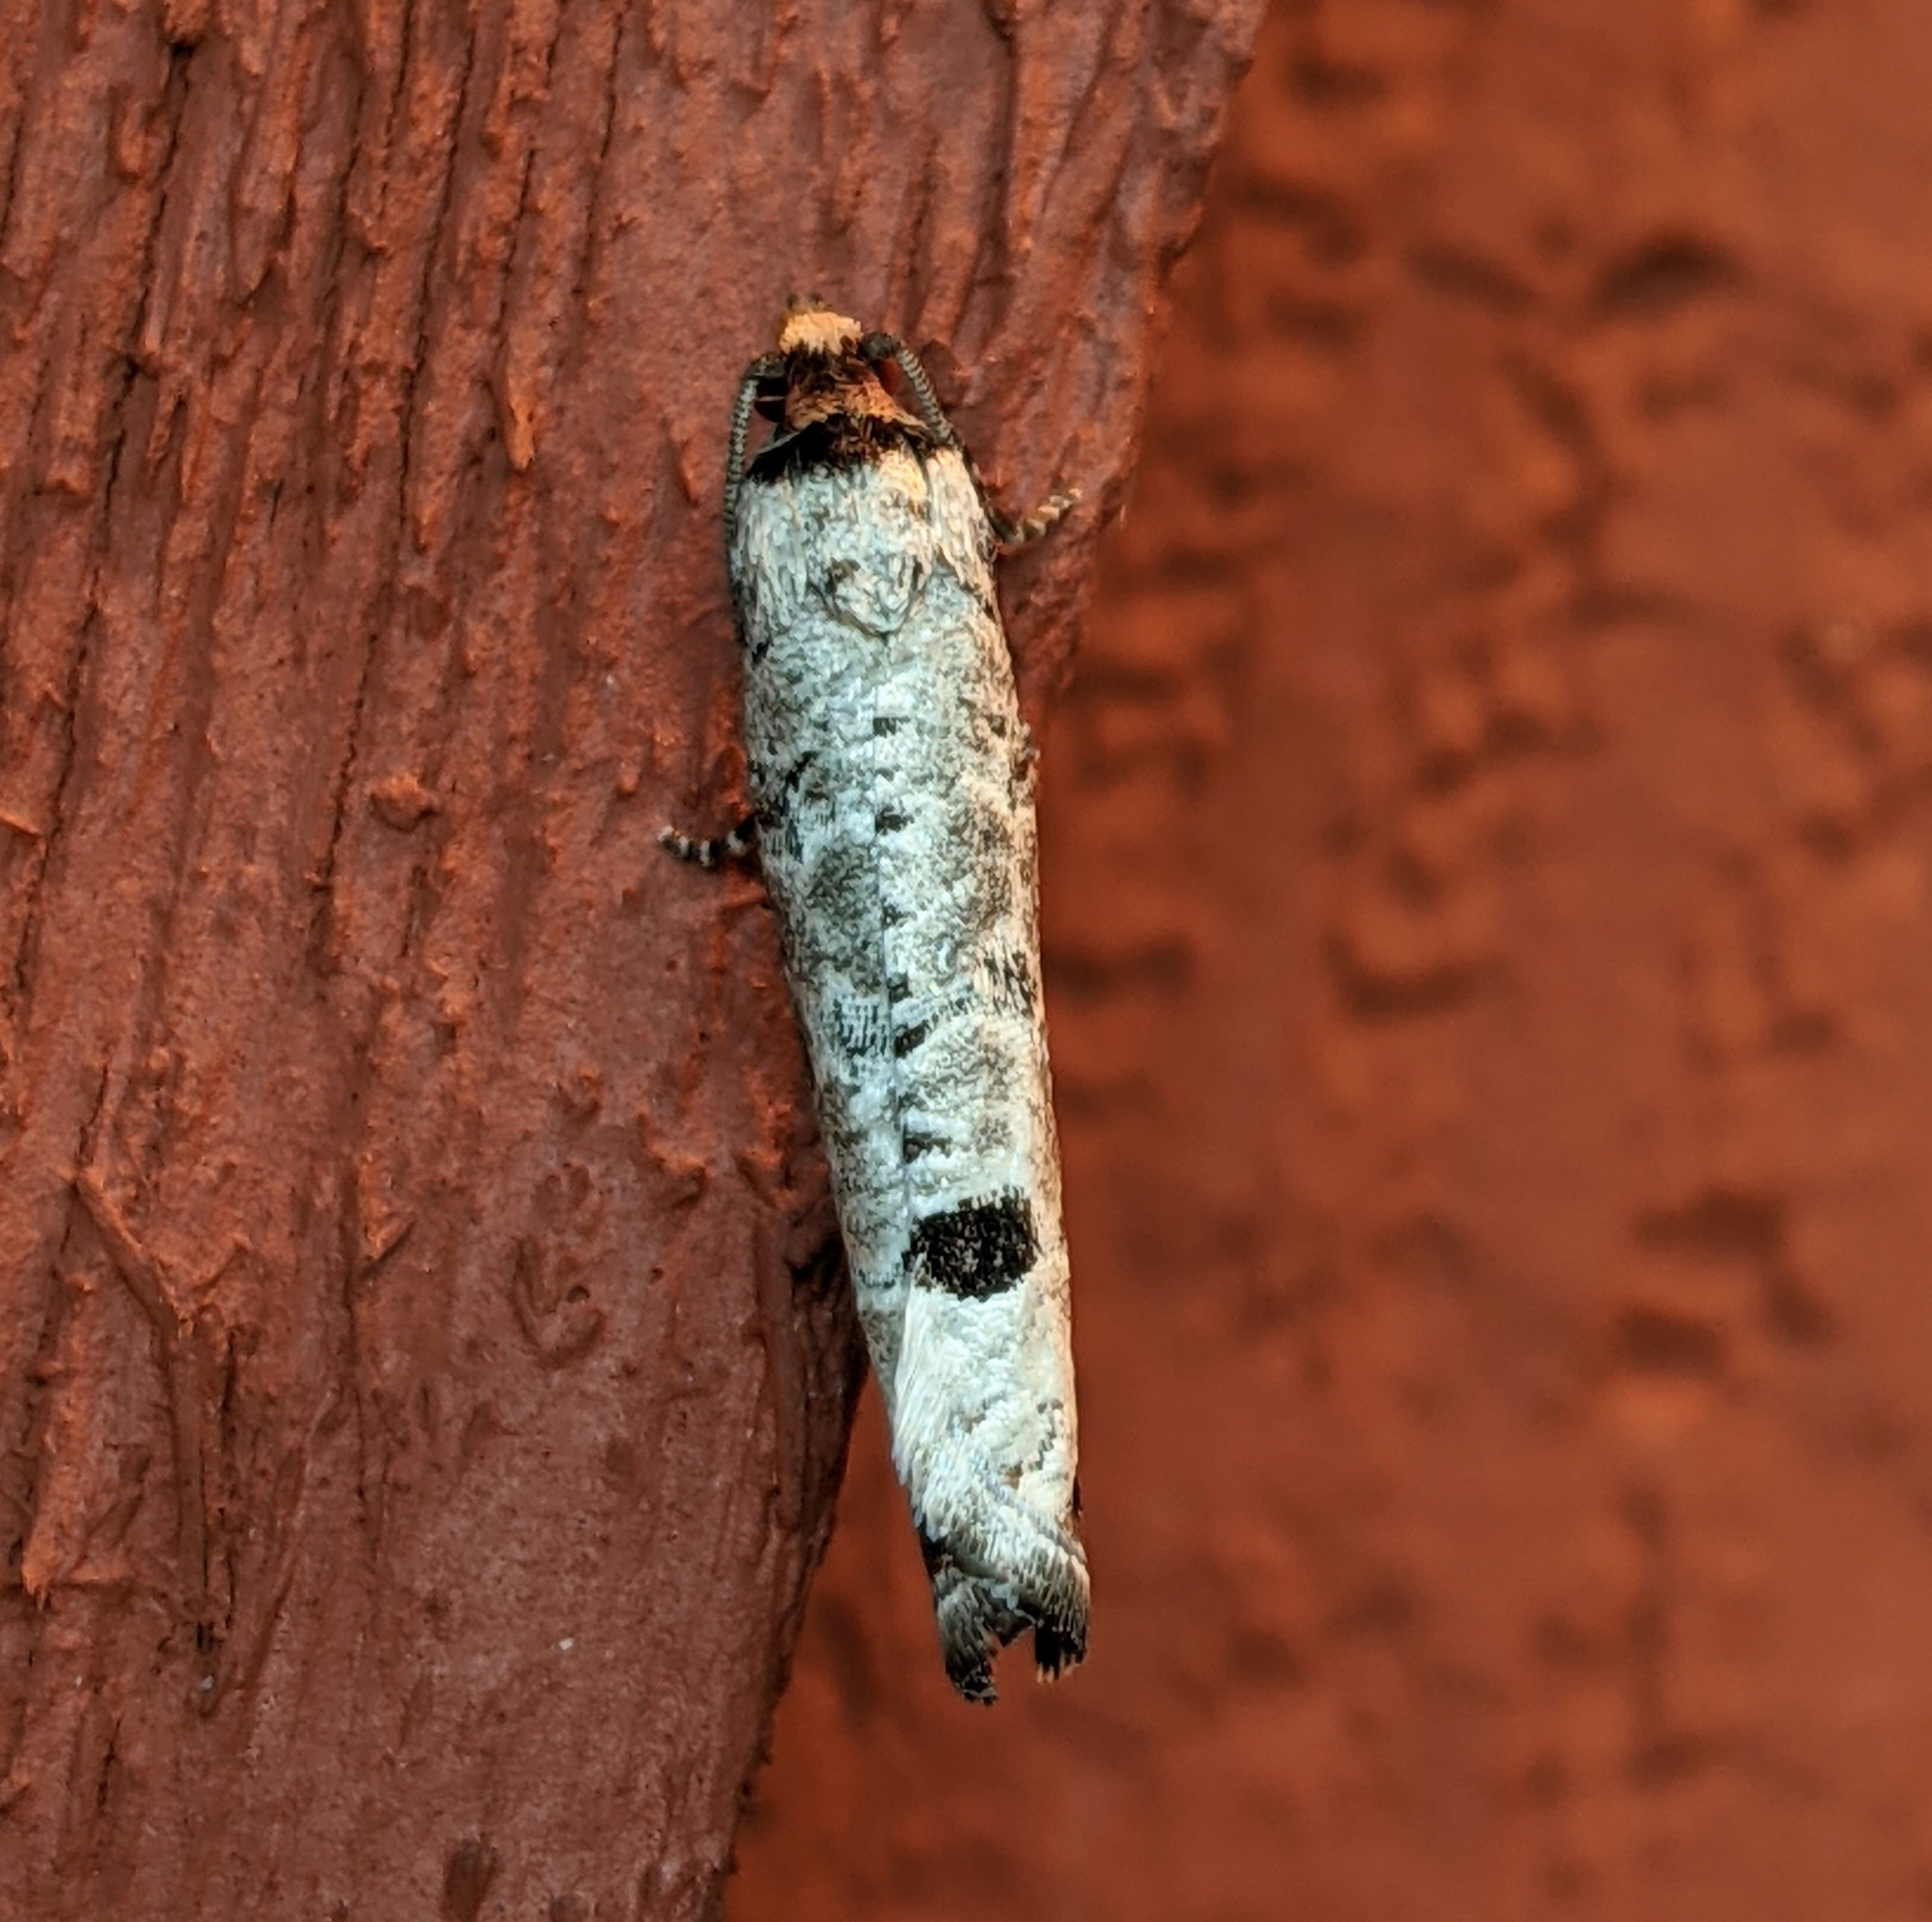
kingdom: Animalia
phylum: Arthropoda
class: Insecta
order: Lepidoptera
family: Tortricidae
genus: Retinia
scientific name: Retinia picicolana
